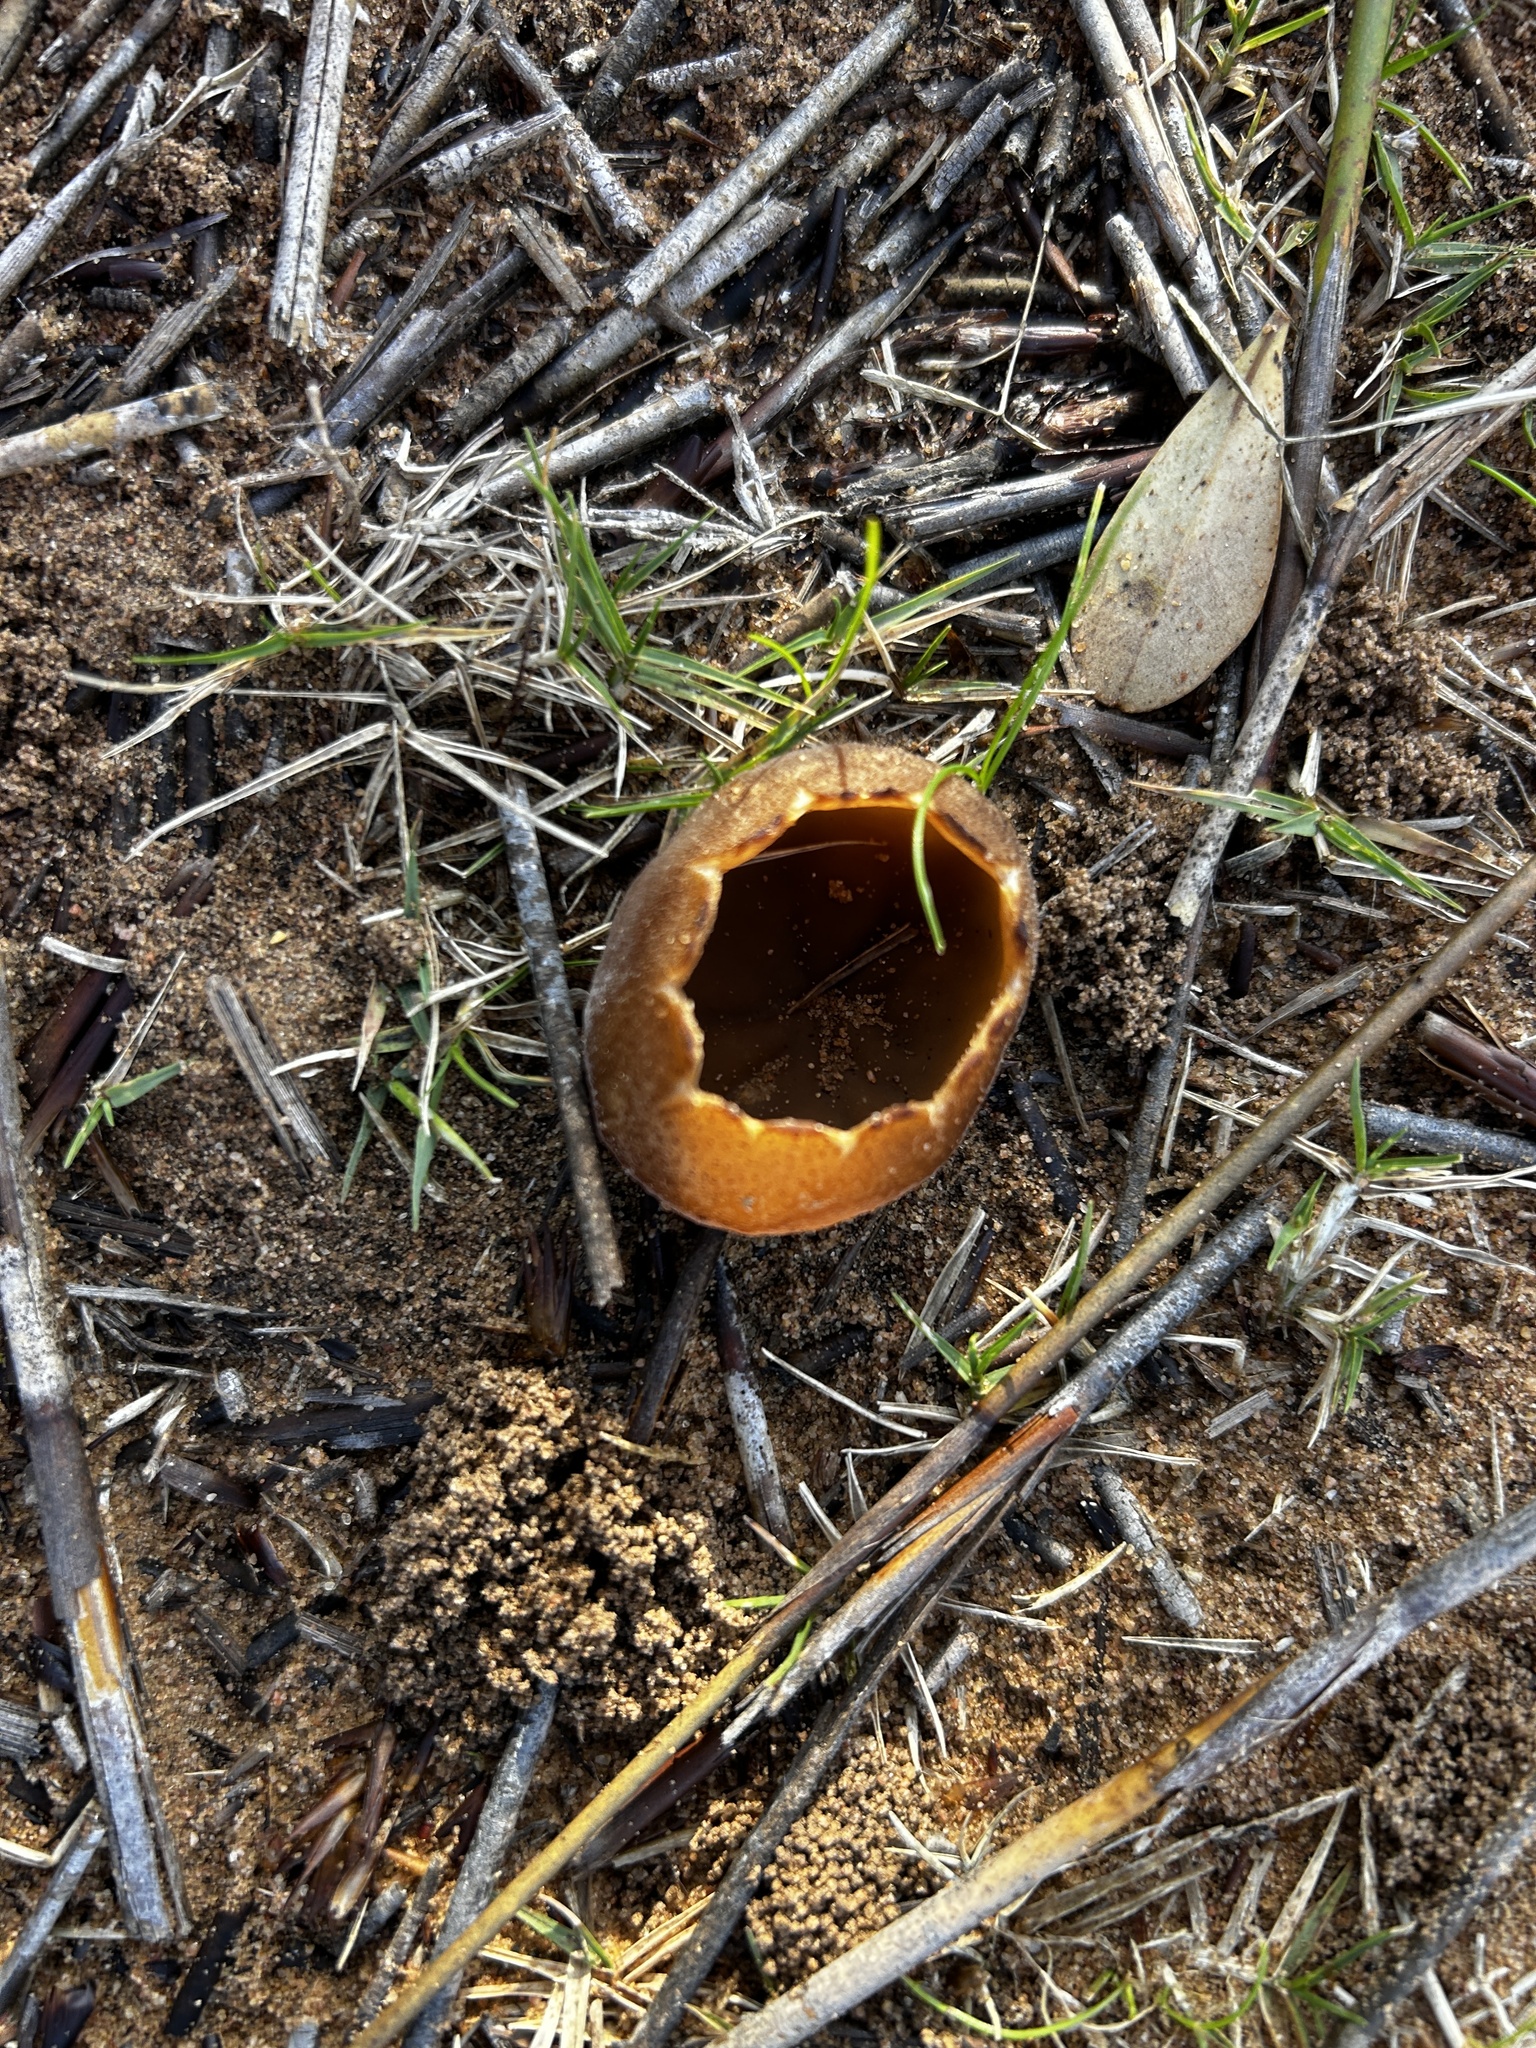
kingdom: Fungi
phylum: Ascomycota
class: Pezizomycetes
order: Pezizales
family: Pezizaceae
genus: Peziza
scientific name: Peziza ammophila
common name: Dune cup
